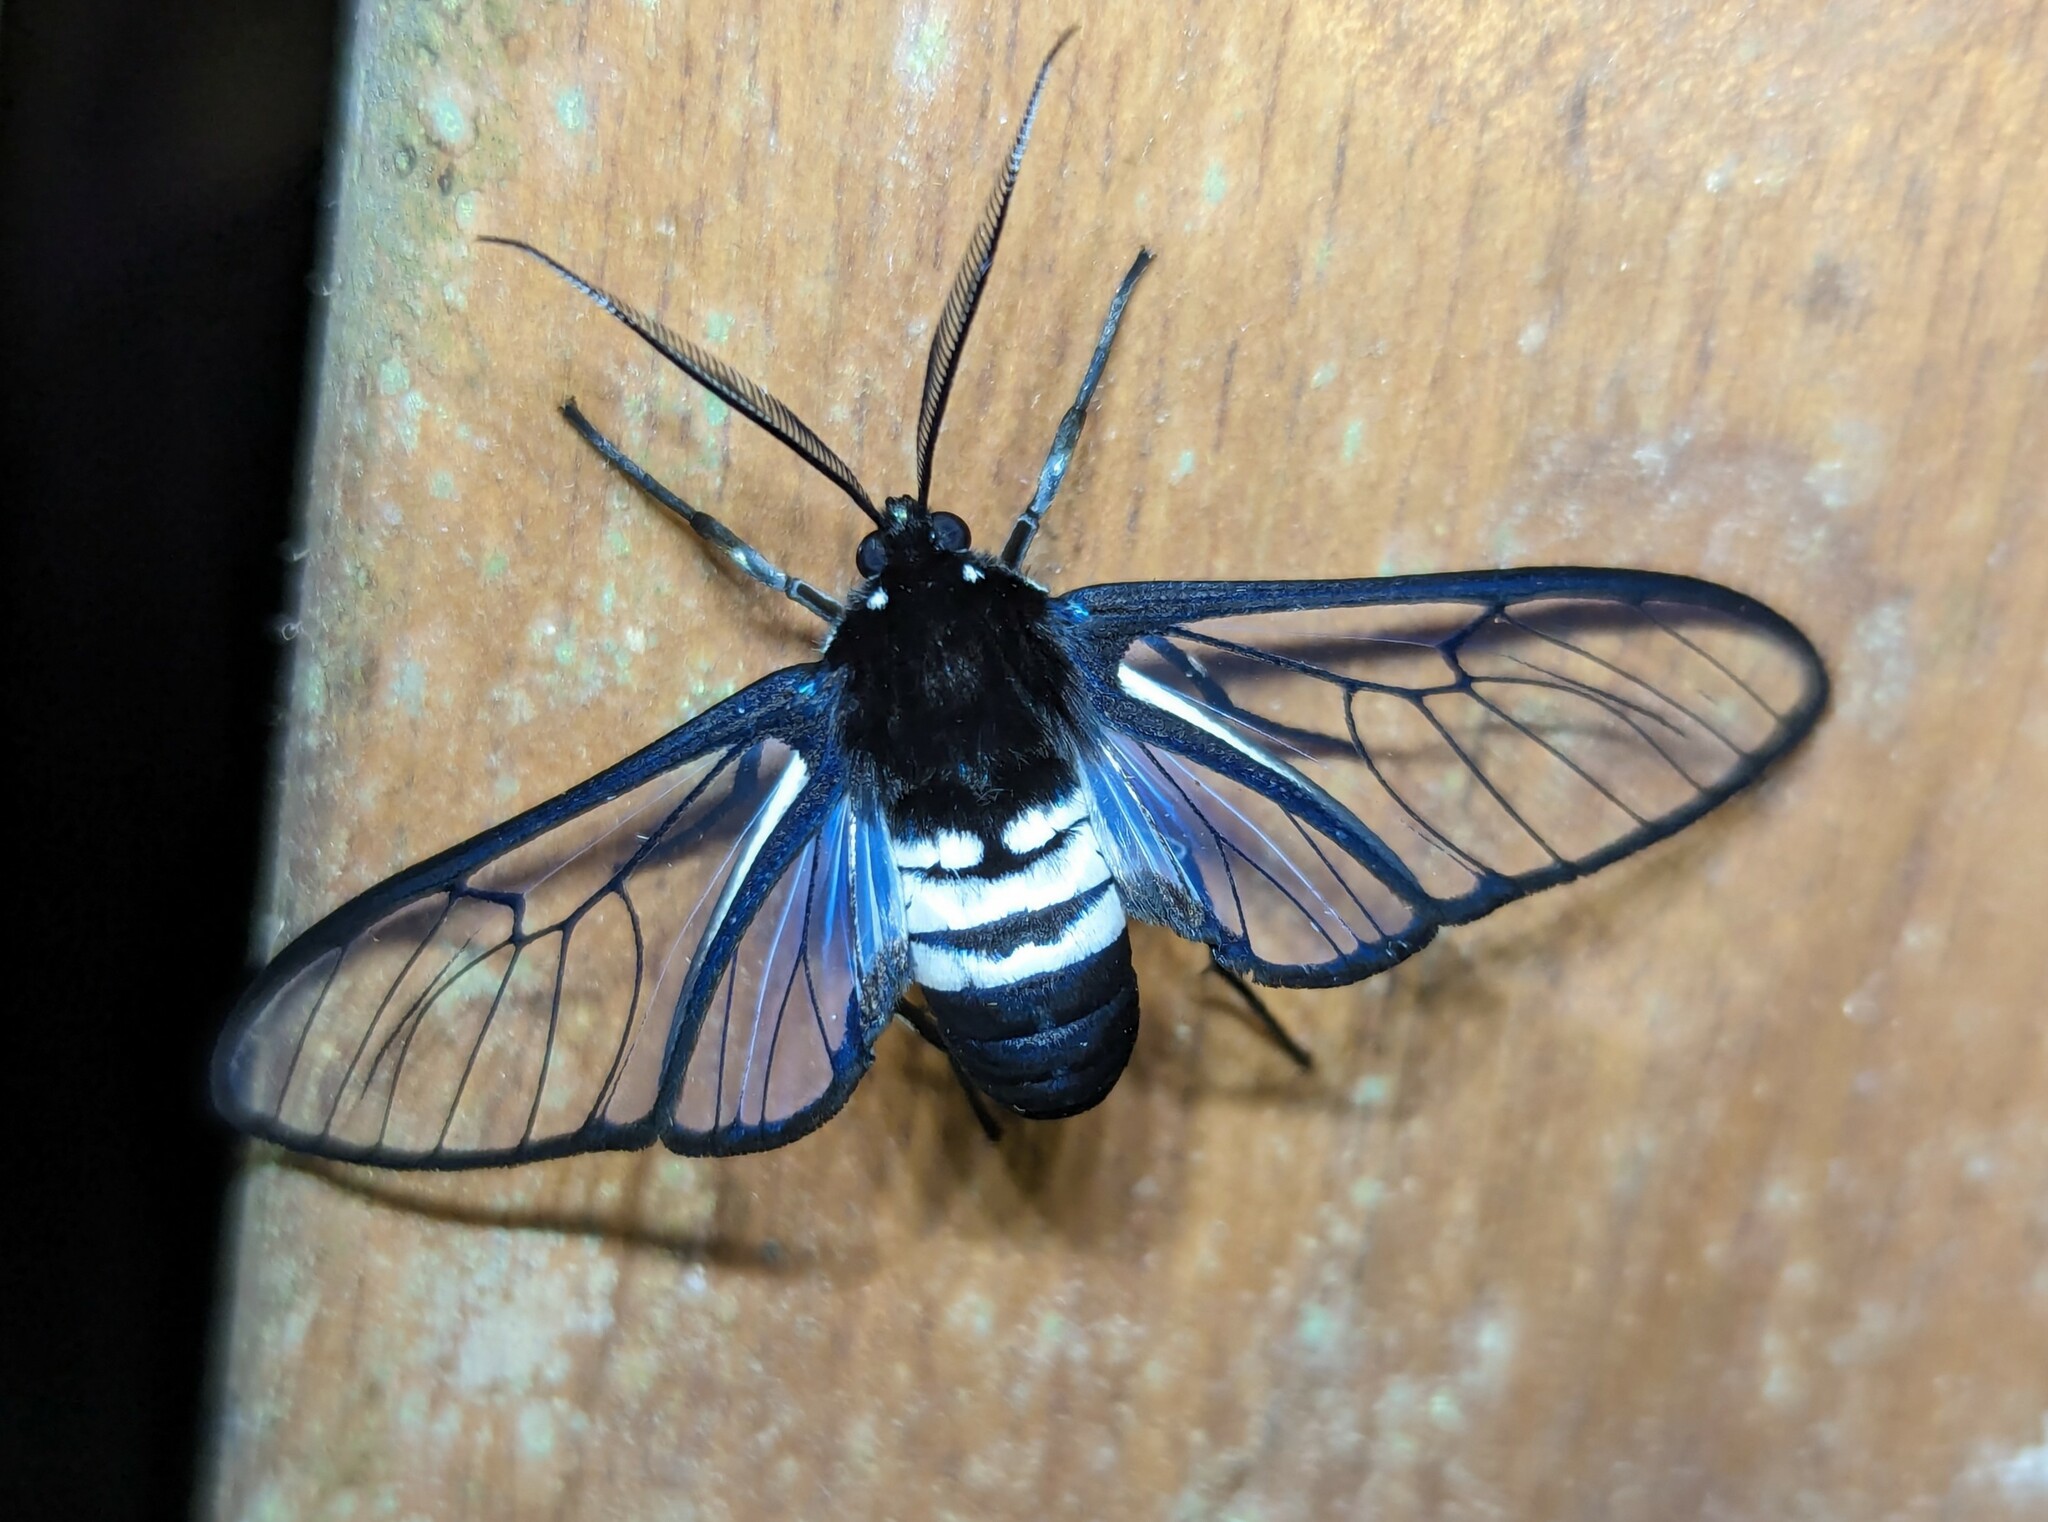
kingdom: Animalia
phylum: Arthropoda
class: Insecta
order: Lepidoptera
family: Erebidae
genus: Homoeocera
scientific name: Homoeocera trizona
